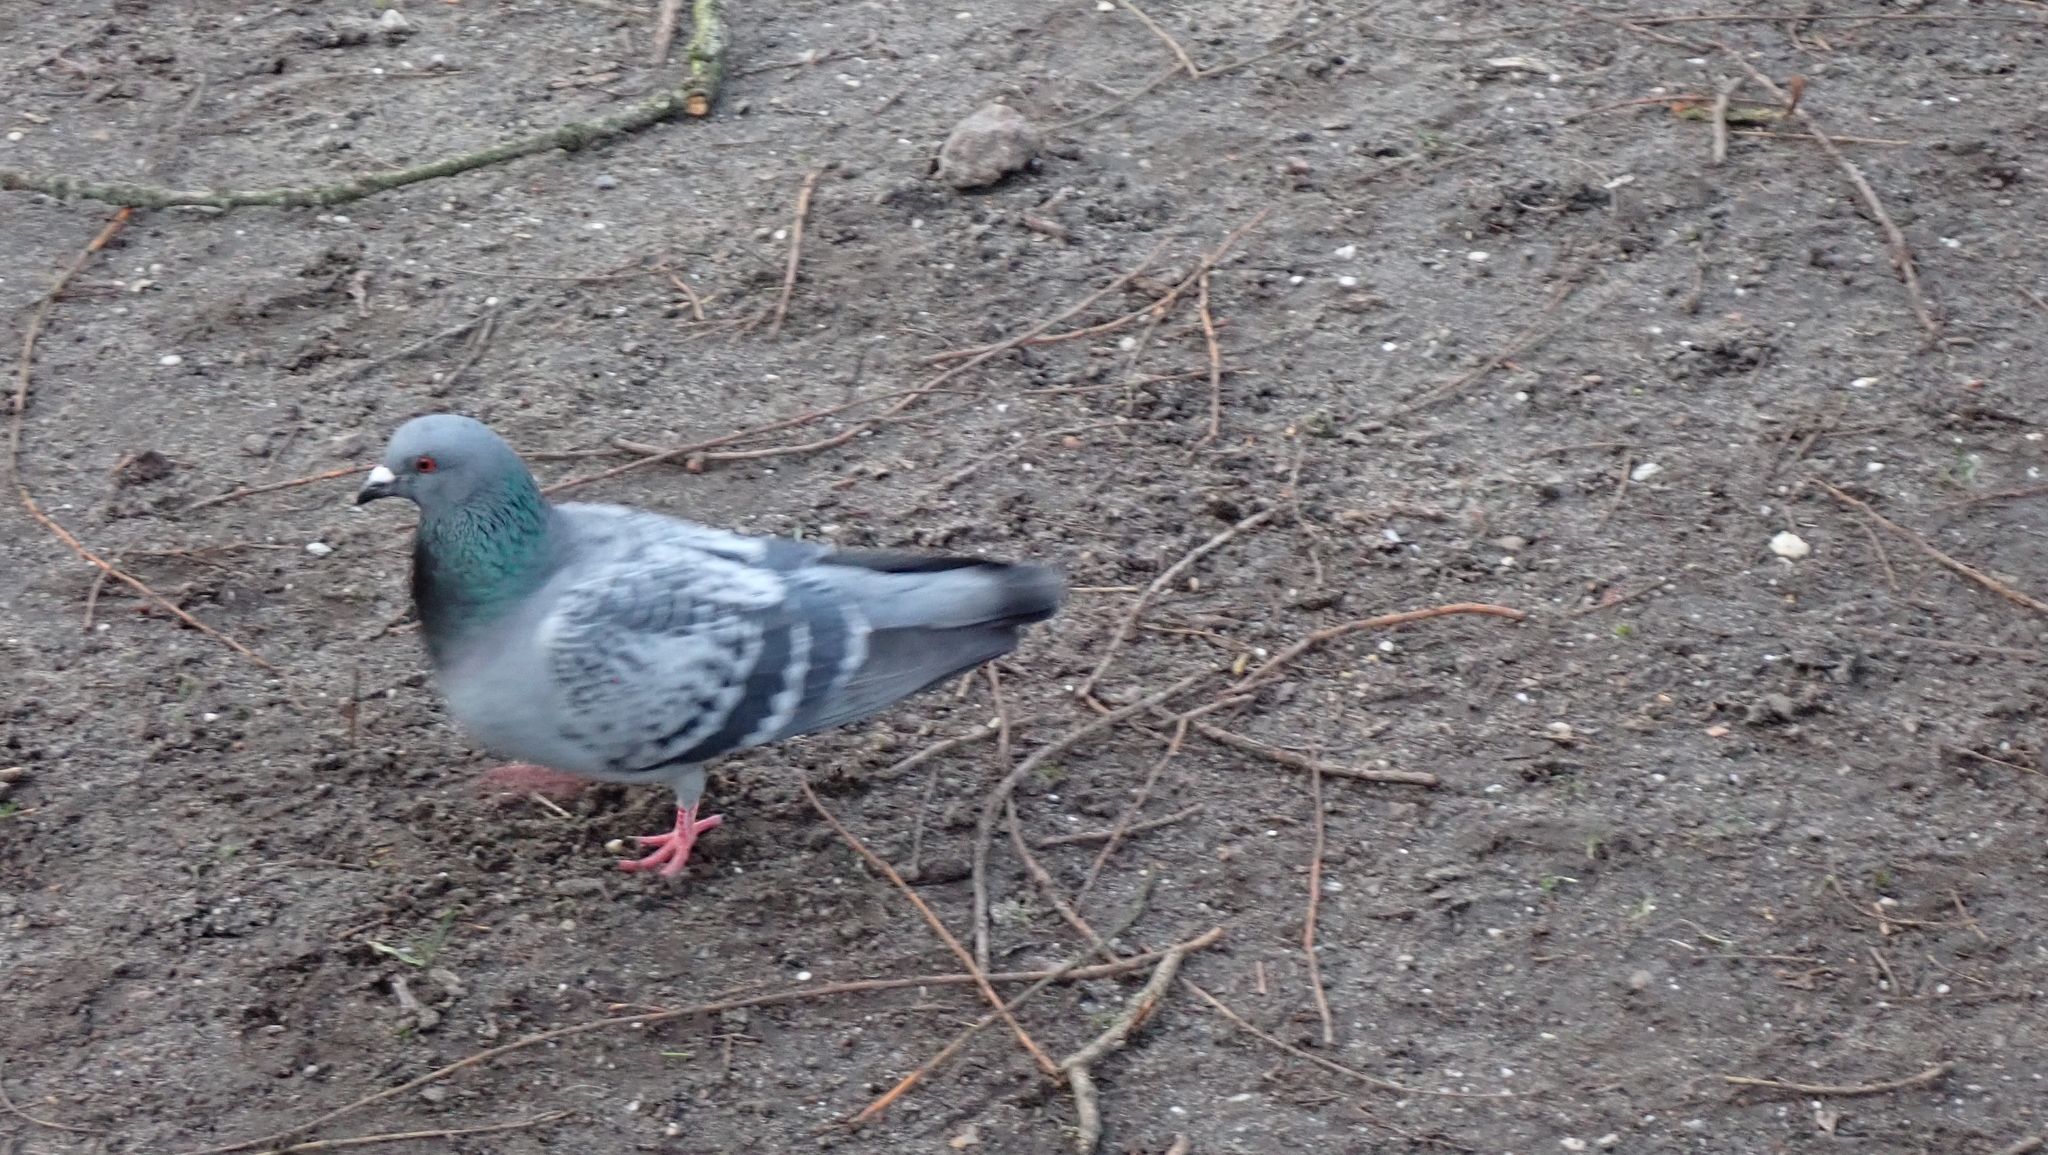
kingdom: Animalia
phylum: Chordata
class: Aves
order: Columbiformes
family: Columbidae
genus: Columba
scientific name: Columba livia
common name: Rock pigeon
